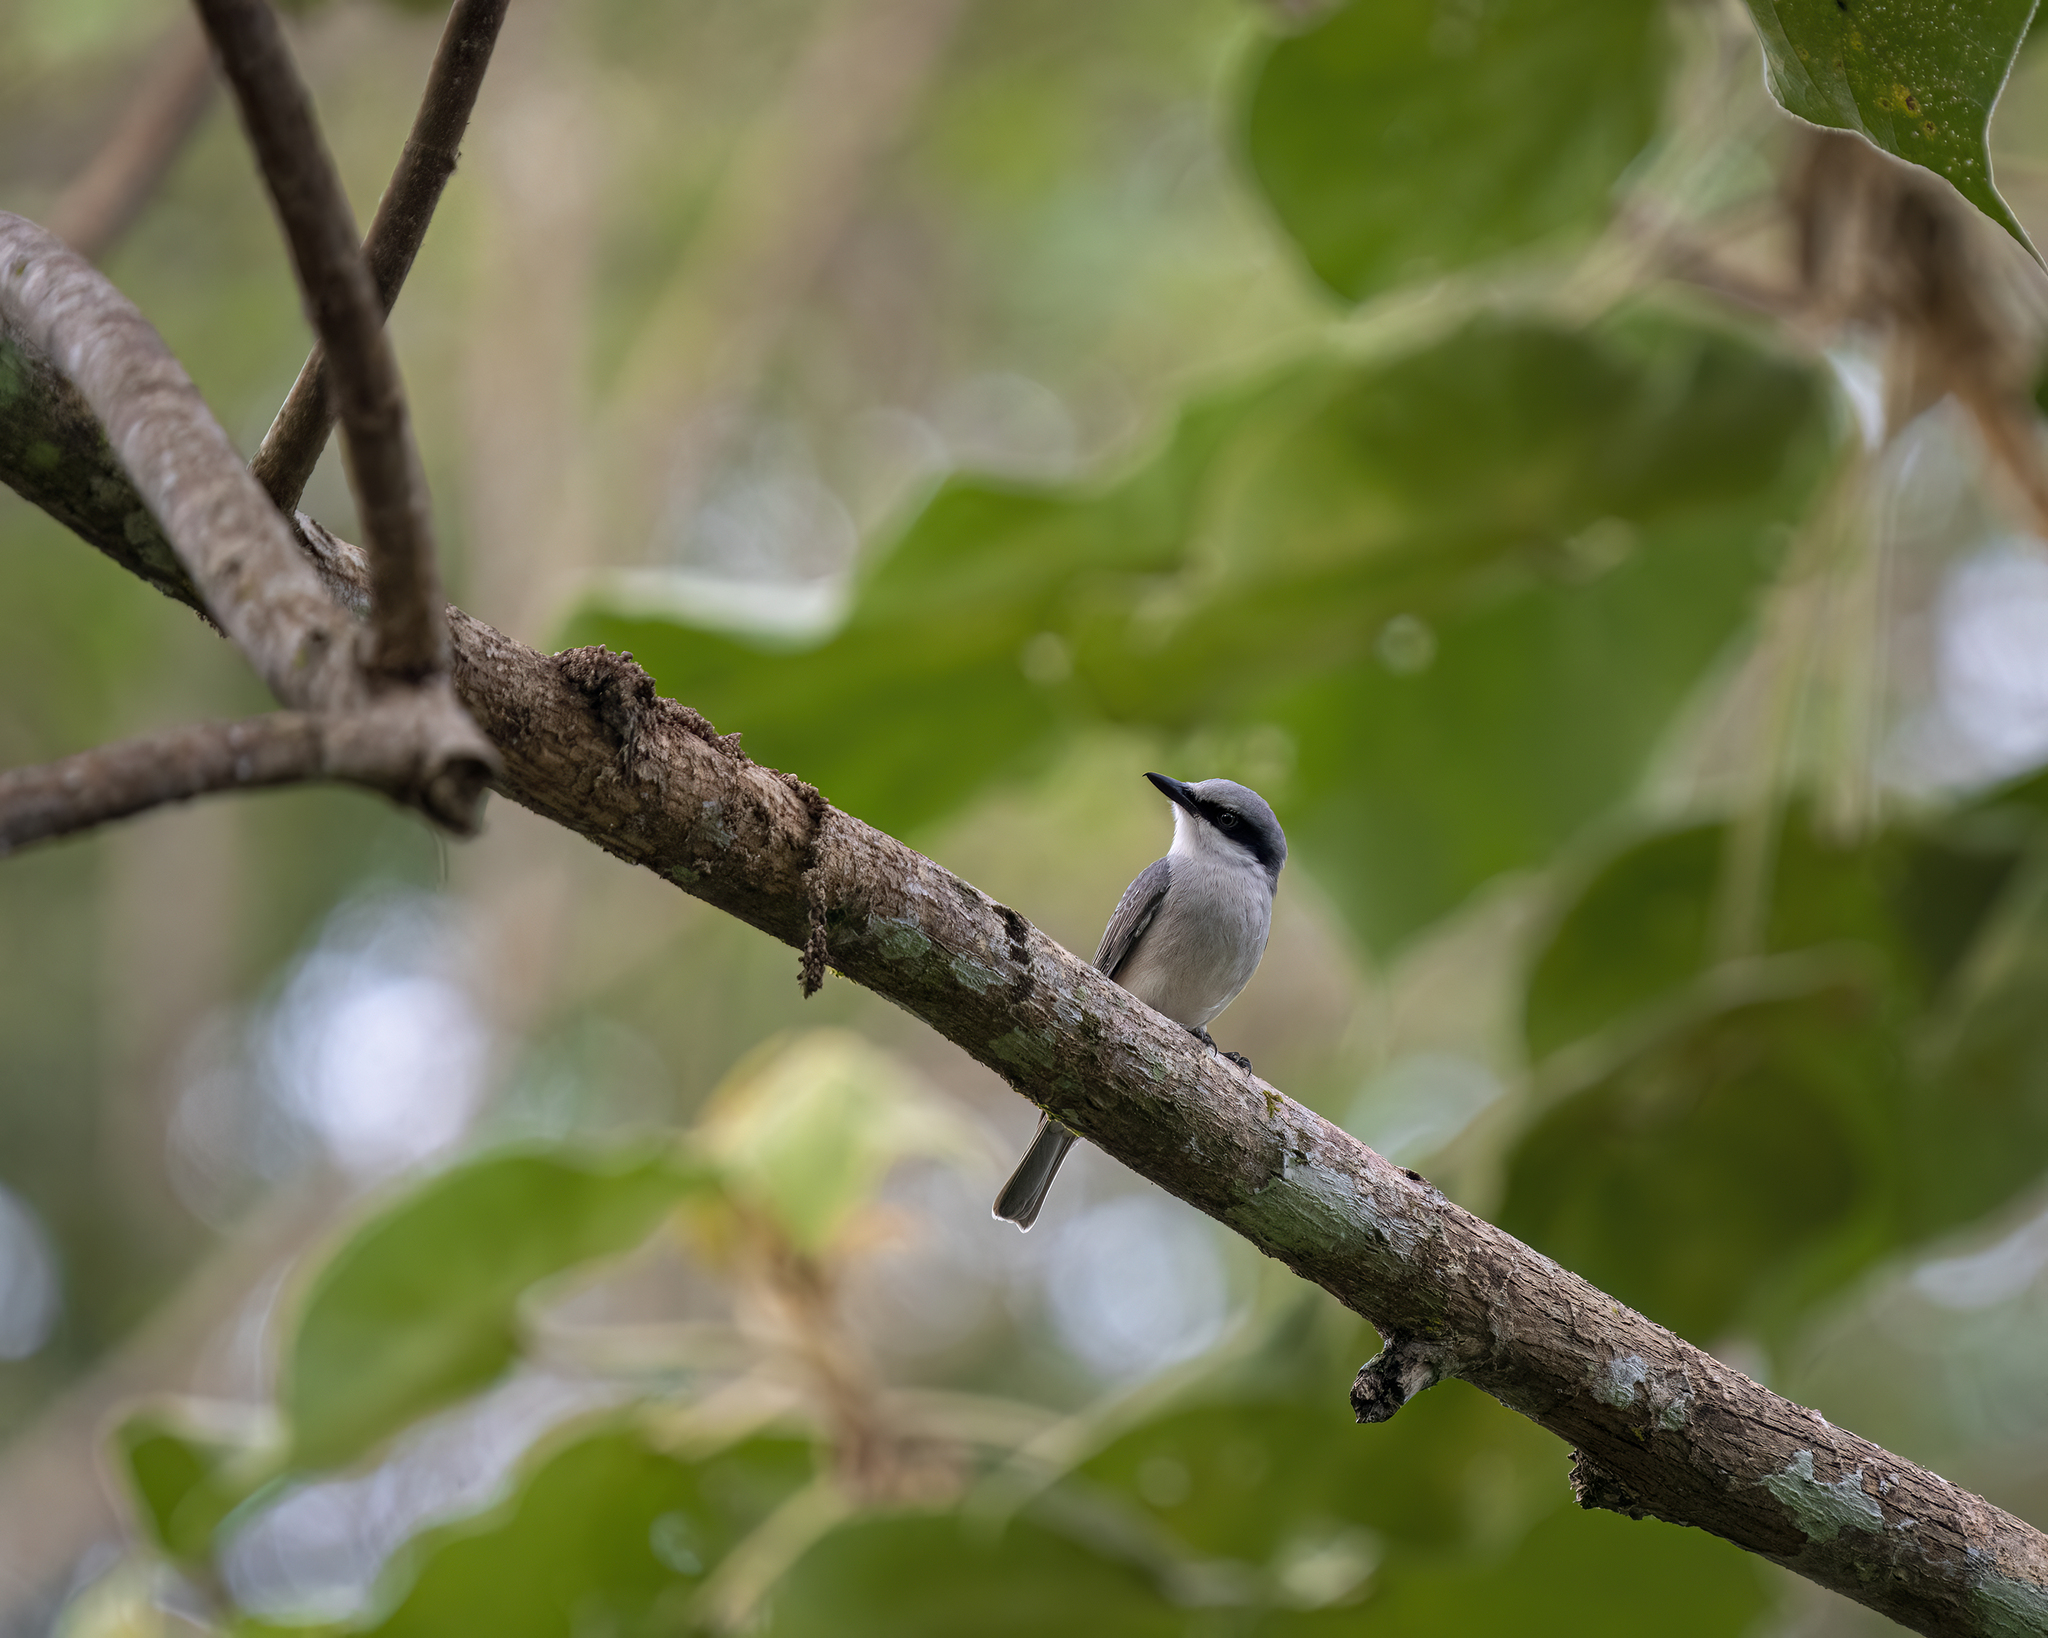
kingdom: Animalia
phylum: Chordata
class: Aves
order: Passeriformes
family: Tephrodornithidae
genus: Tephrodornis
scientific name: Tephrodornis virgatus
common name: Large woodshrike
